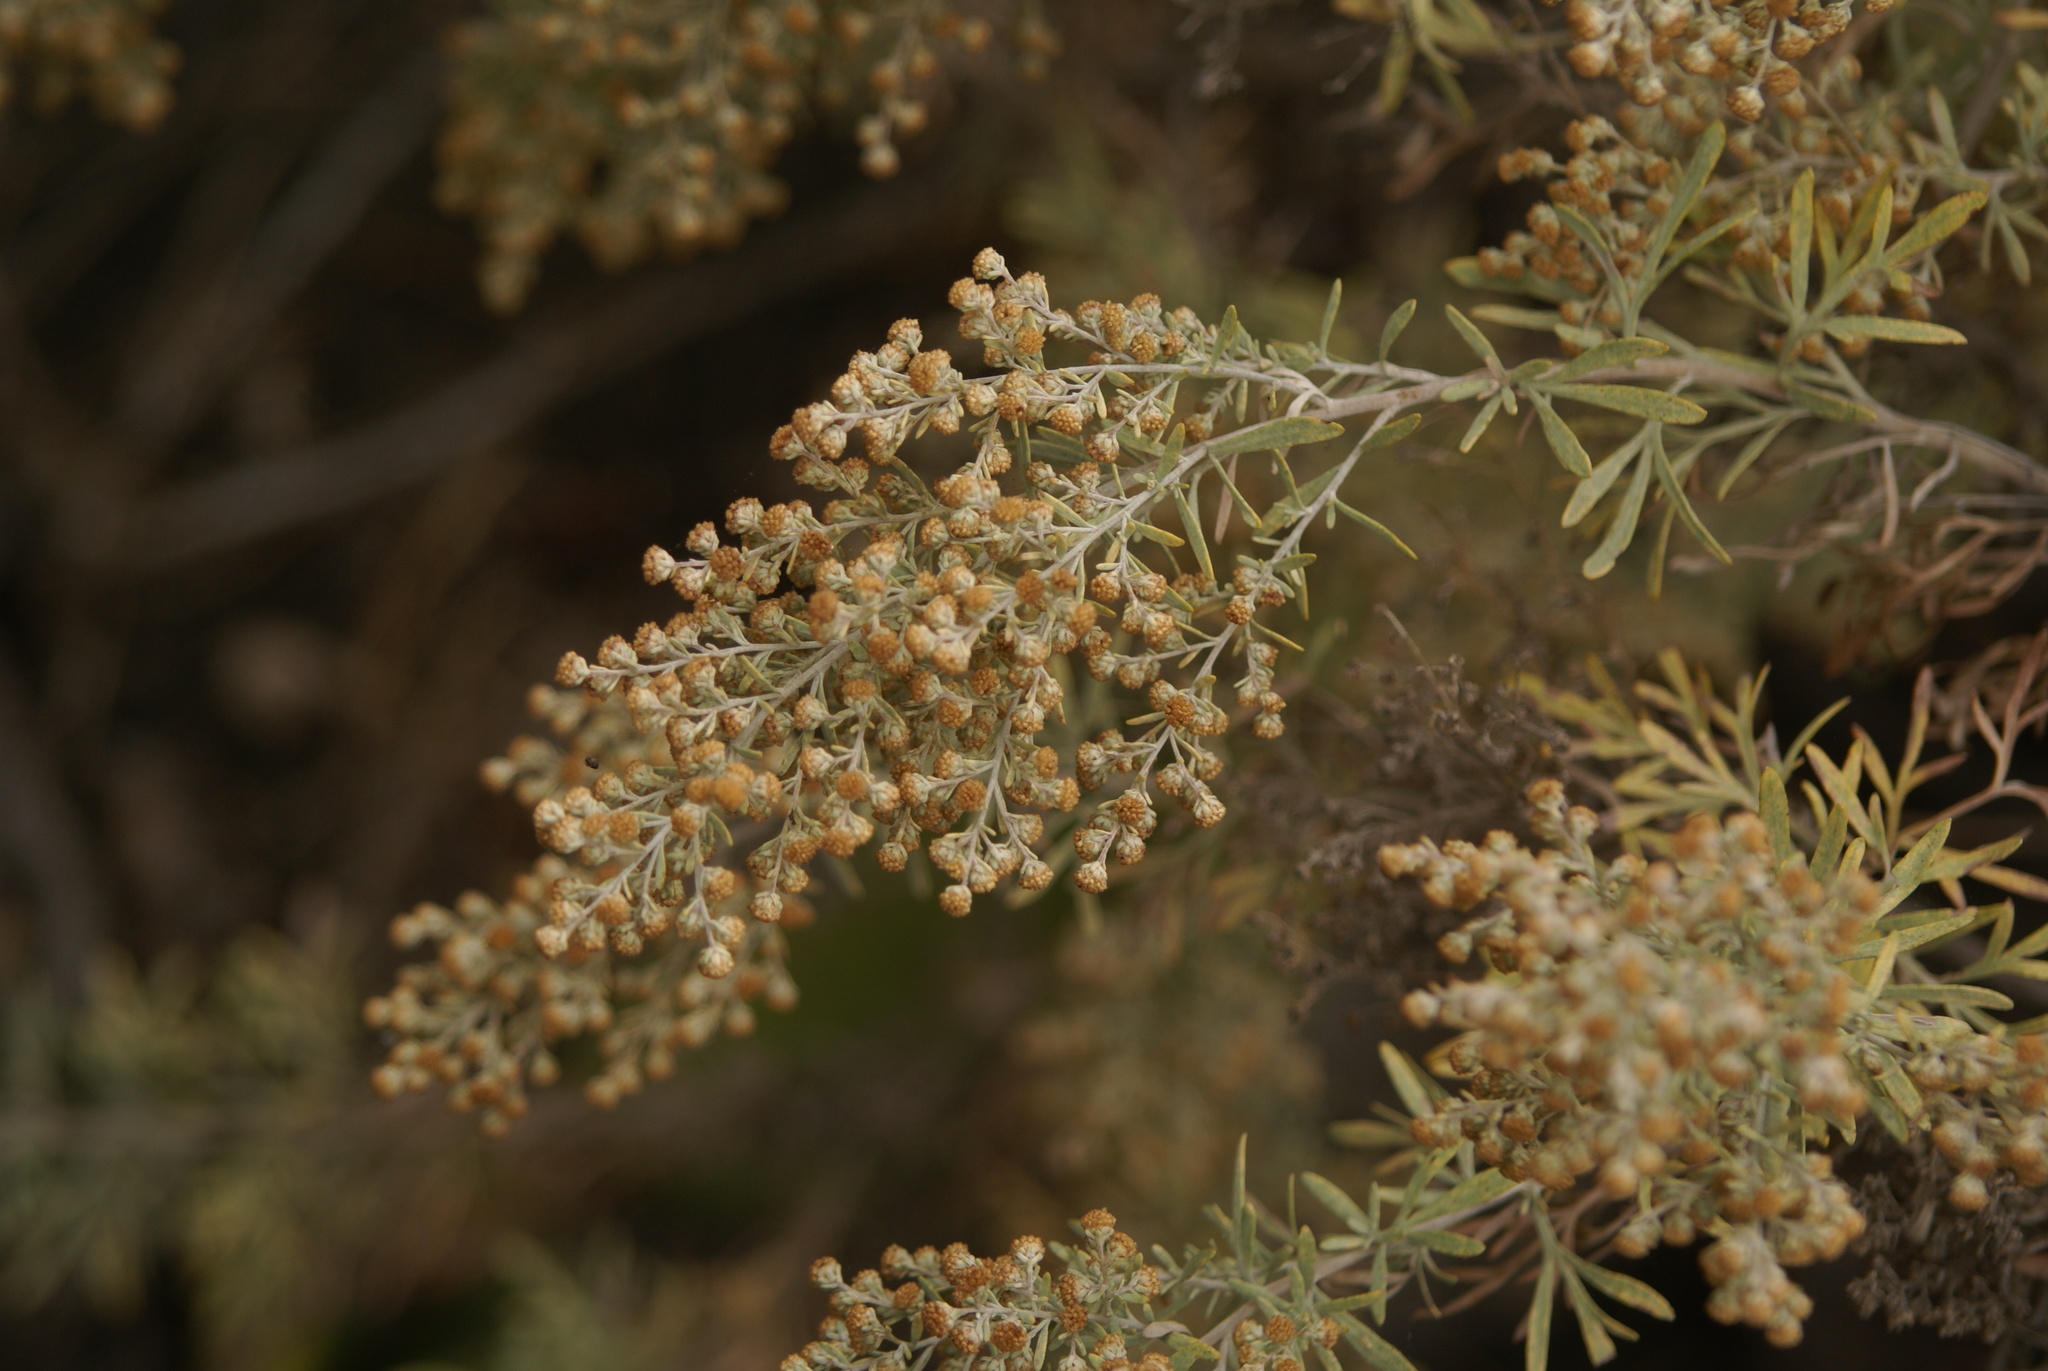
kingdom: Plantae
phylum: Tracheophyta
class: Magnoliopsida
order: Asterales
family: Asteraceae
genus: Artemisia
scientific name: Artemisia thuscula
